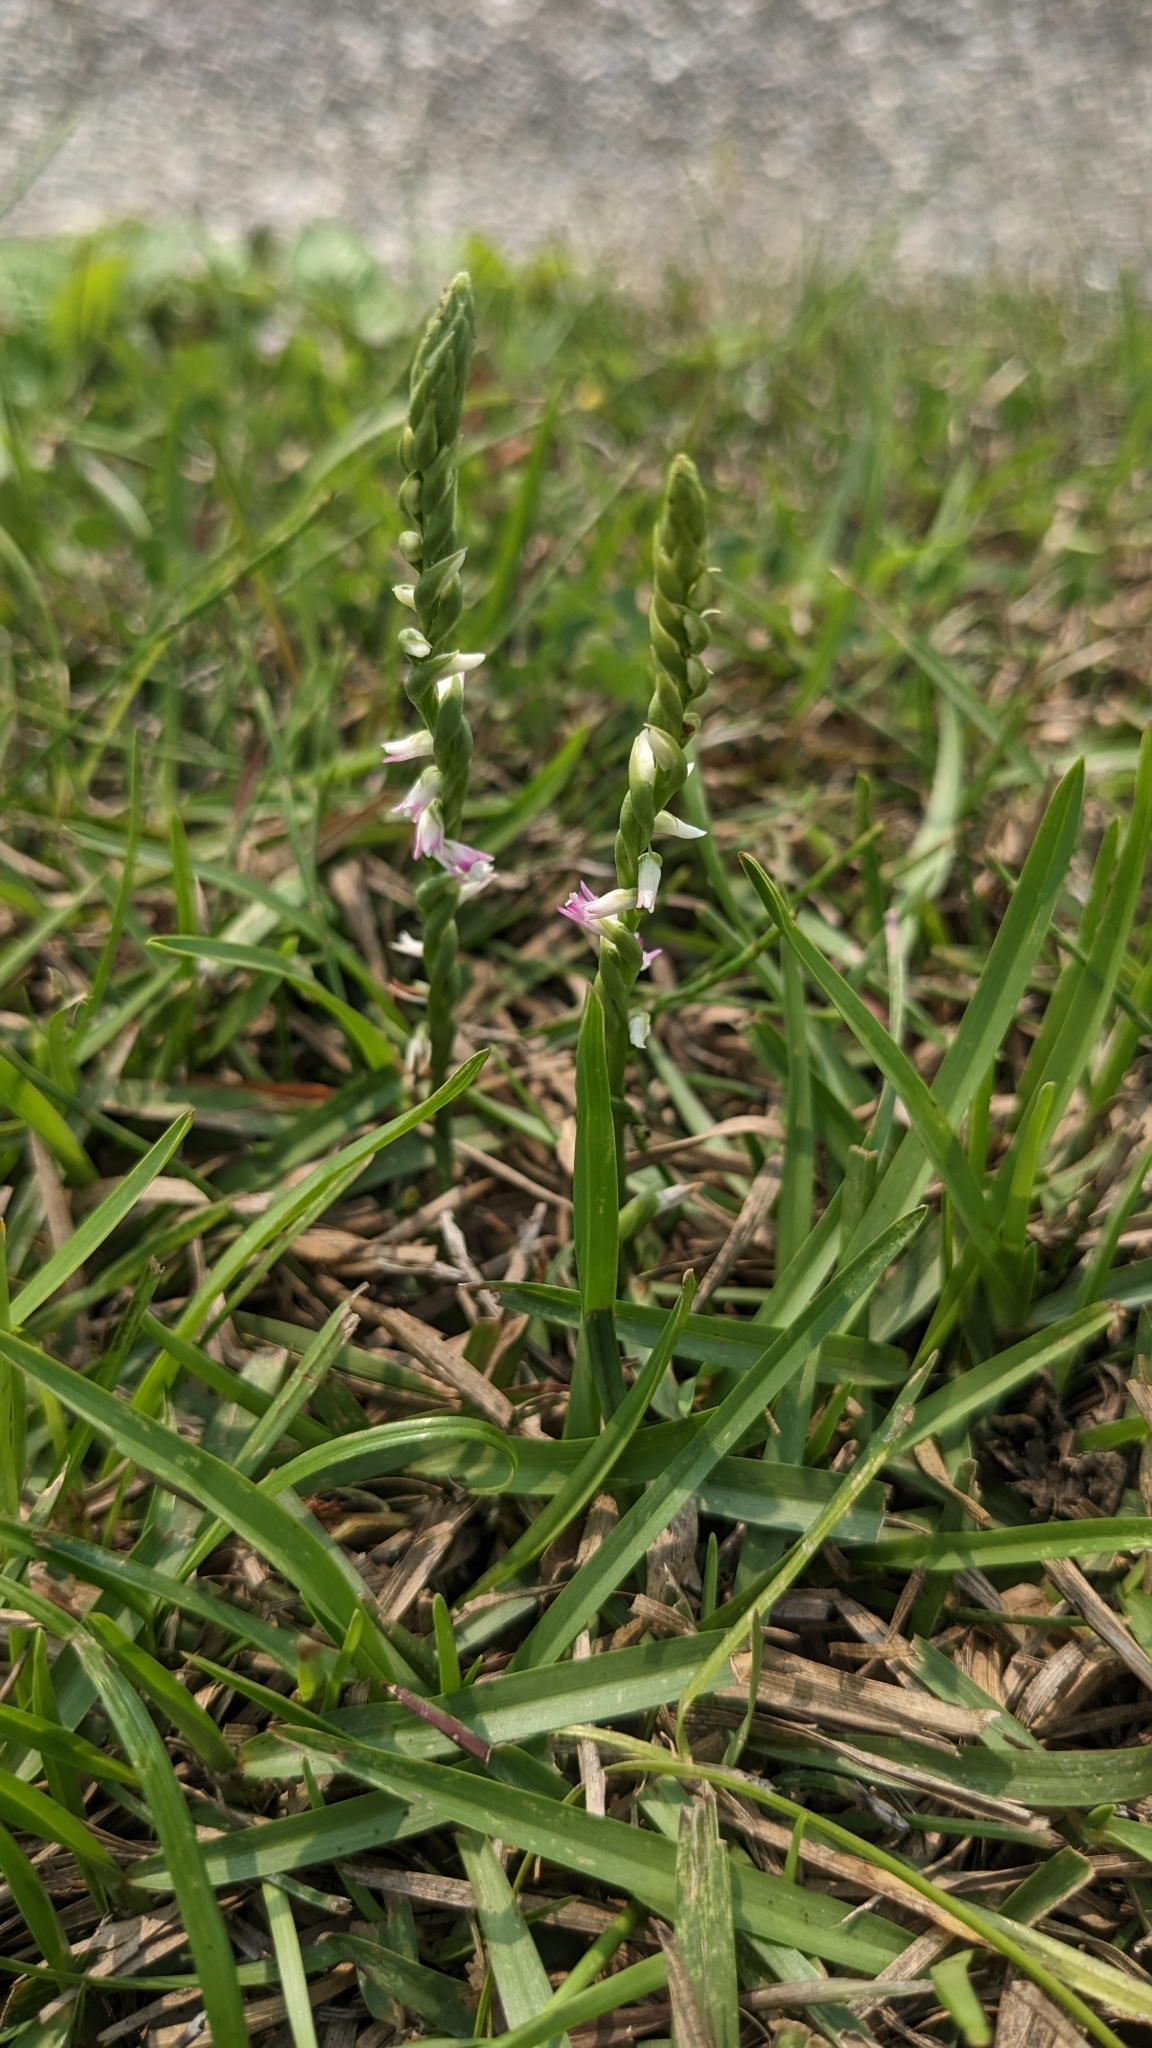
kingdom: Plantae
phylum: Tracheophyta
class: Liliopsida
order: Asparagales
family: Orchidaceae
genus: Spiranthes
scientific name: Spiranthes sinensis
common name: Chinese spiranthes
